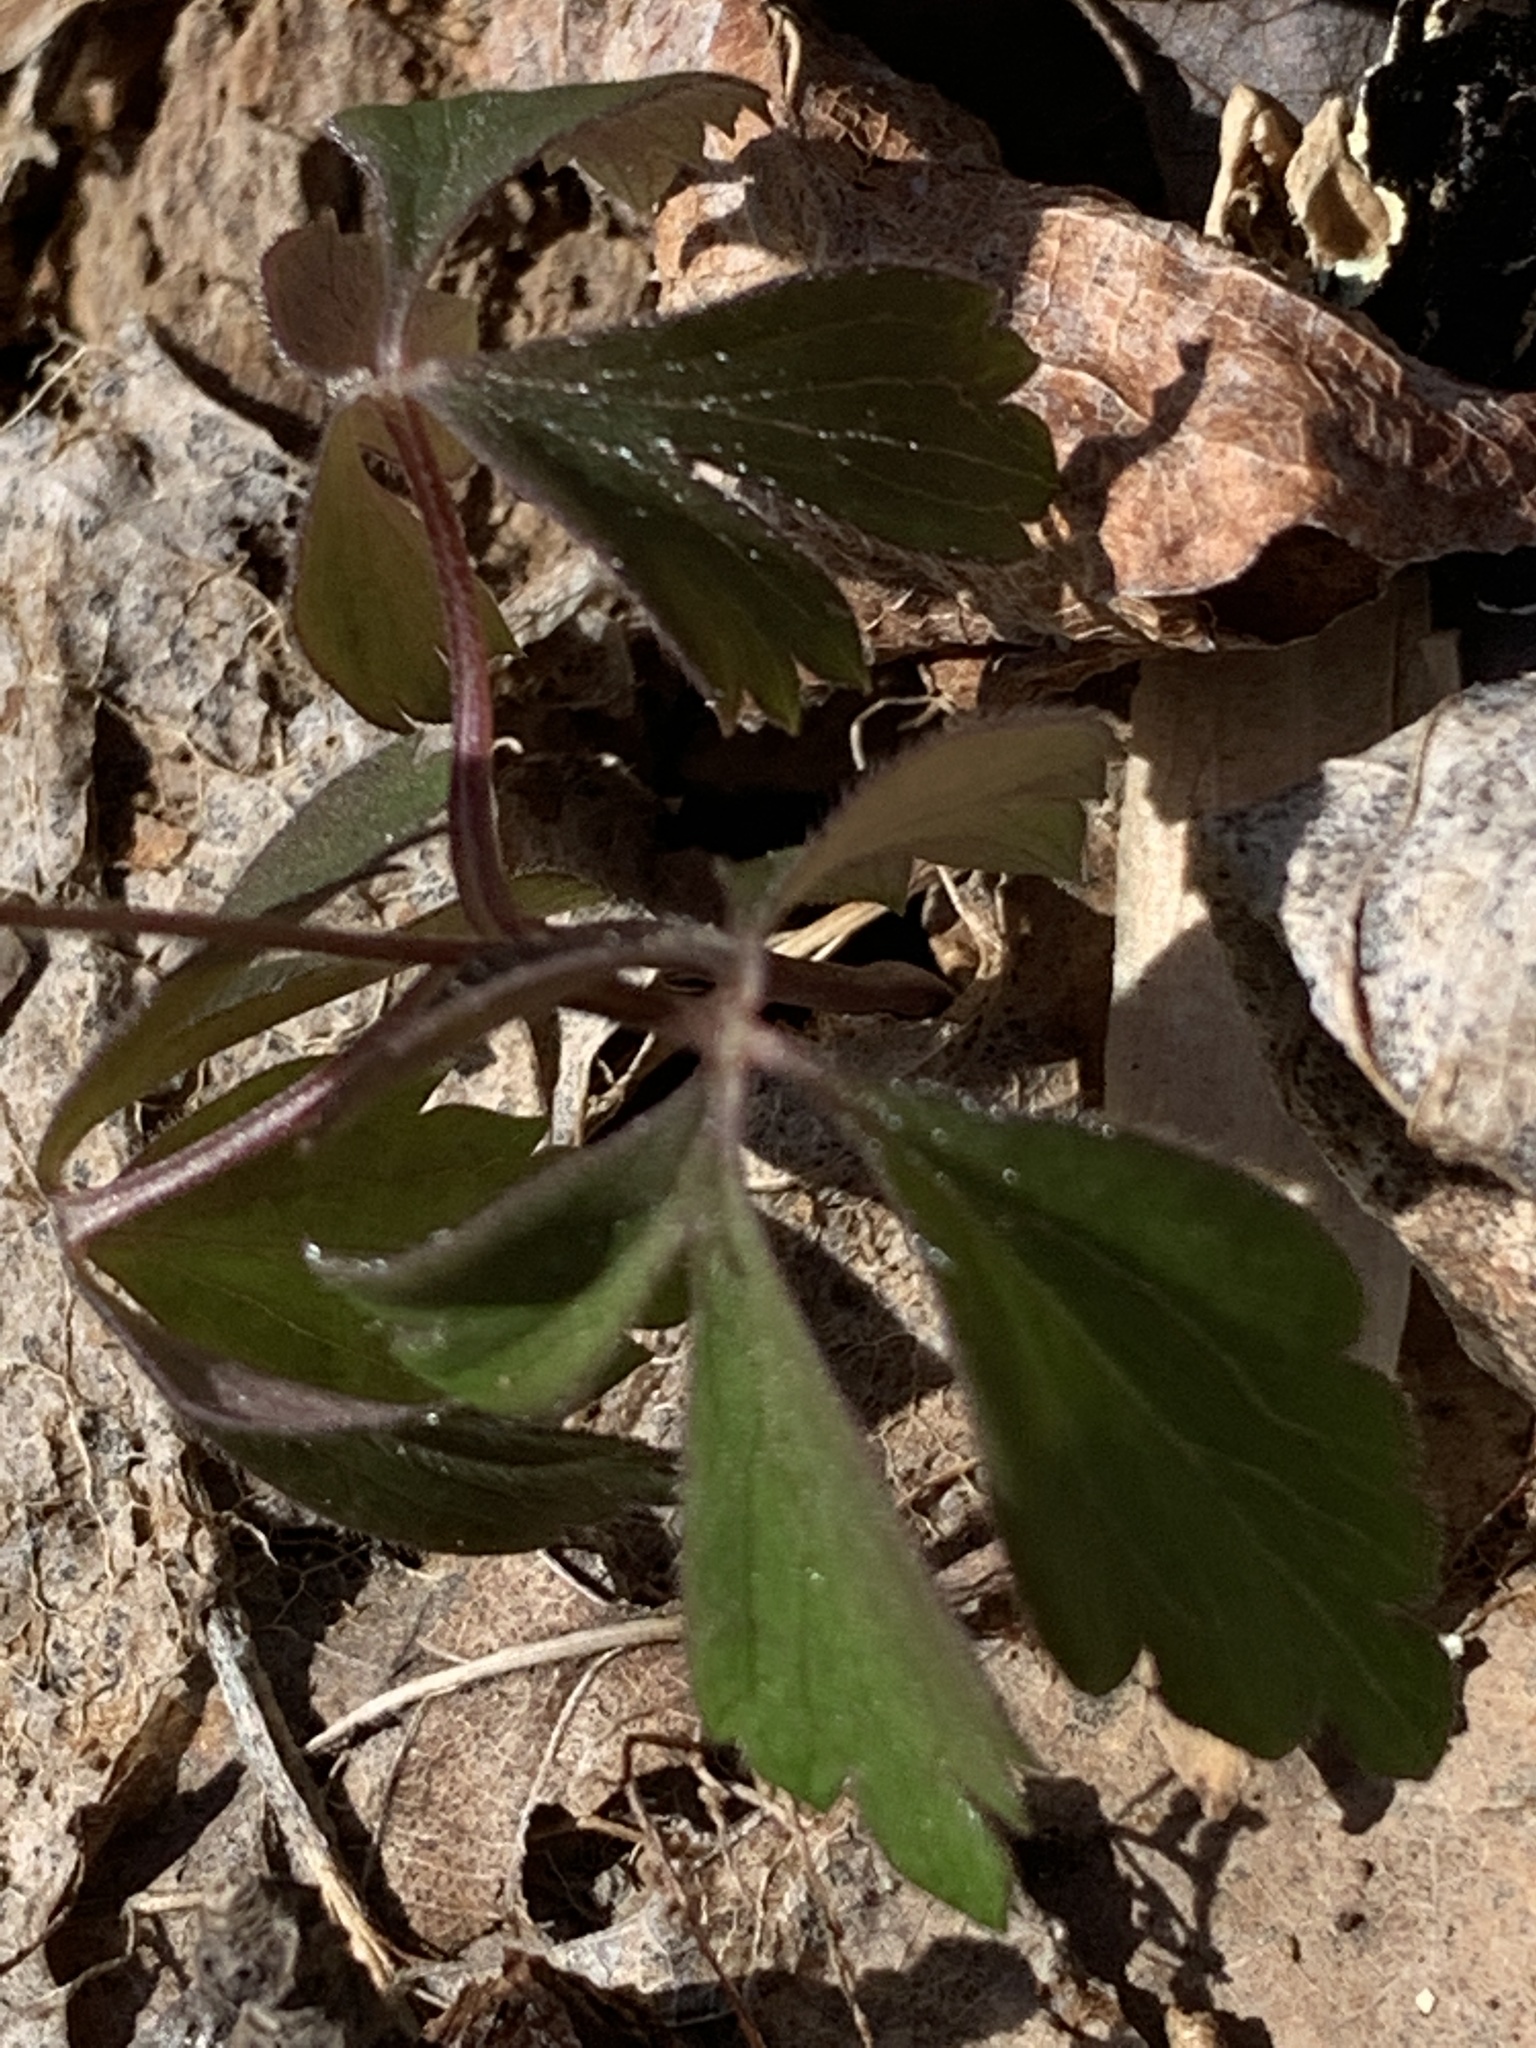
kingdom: Plantae
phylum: Tracheophyta
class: Magnoliopsida
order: Ranunculales
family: Ranunculaceae
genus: Anemone
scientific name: Anemone quinquefolia
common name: Wood anemone
